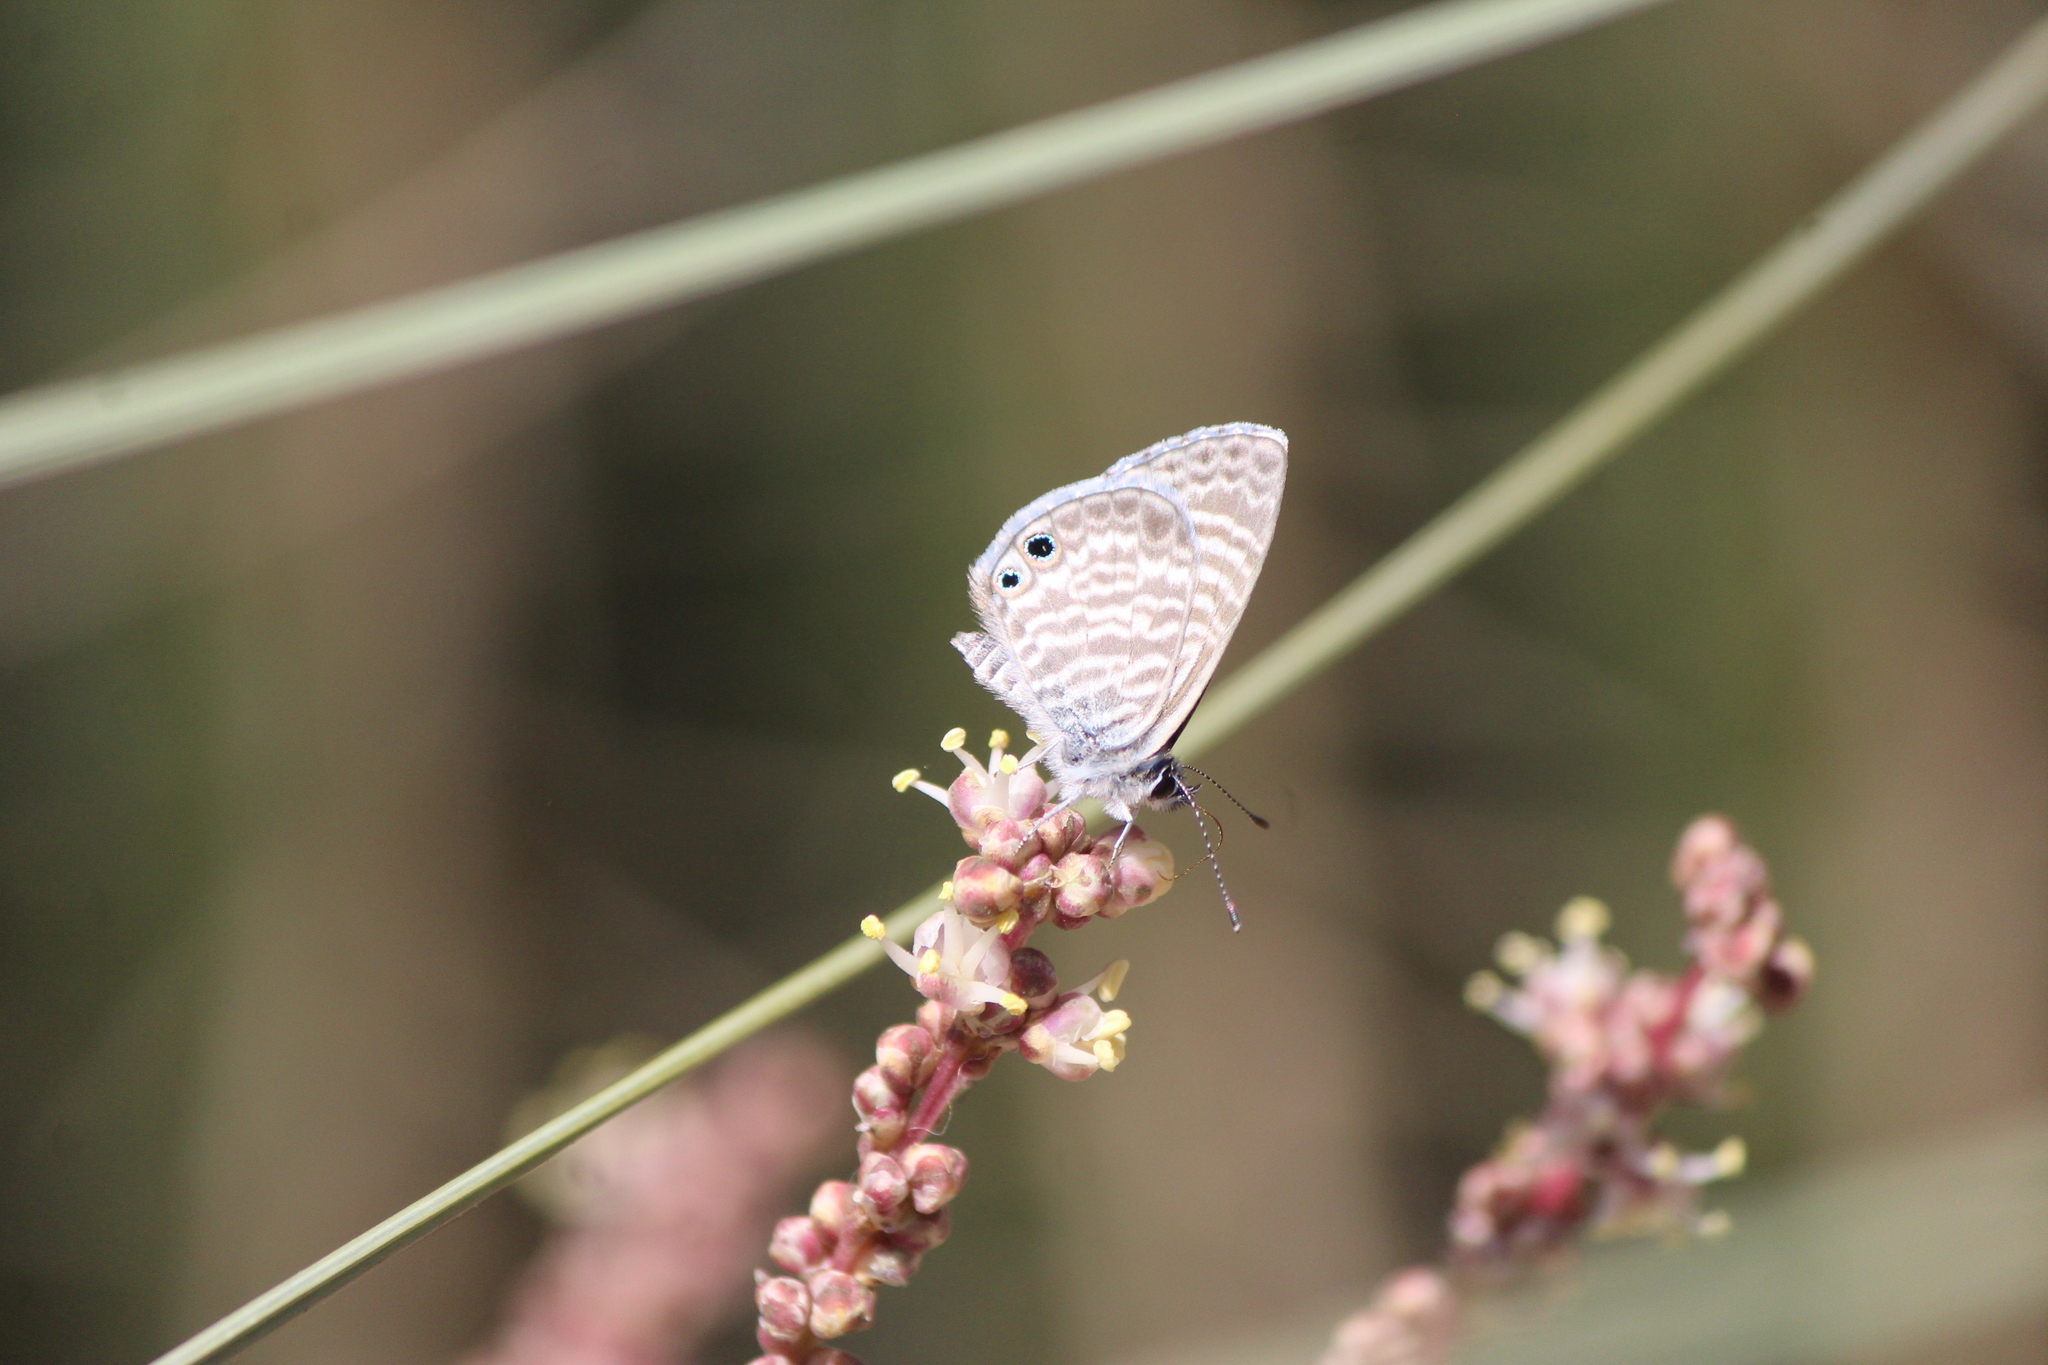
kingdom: Animalia
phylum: Arthropoda
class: Insecta
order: Lepidoptera
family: Lycaenidae
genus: Leptotes
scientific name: Leptotes marina
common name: Marine blue
